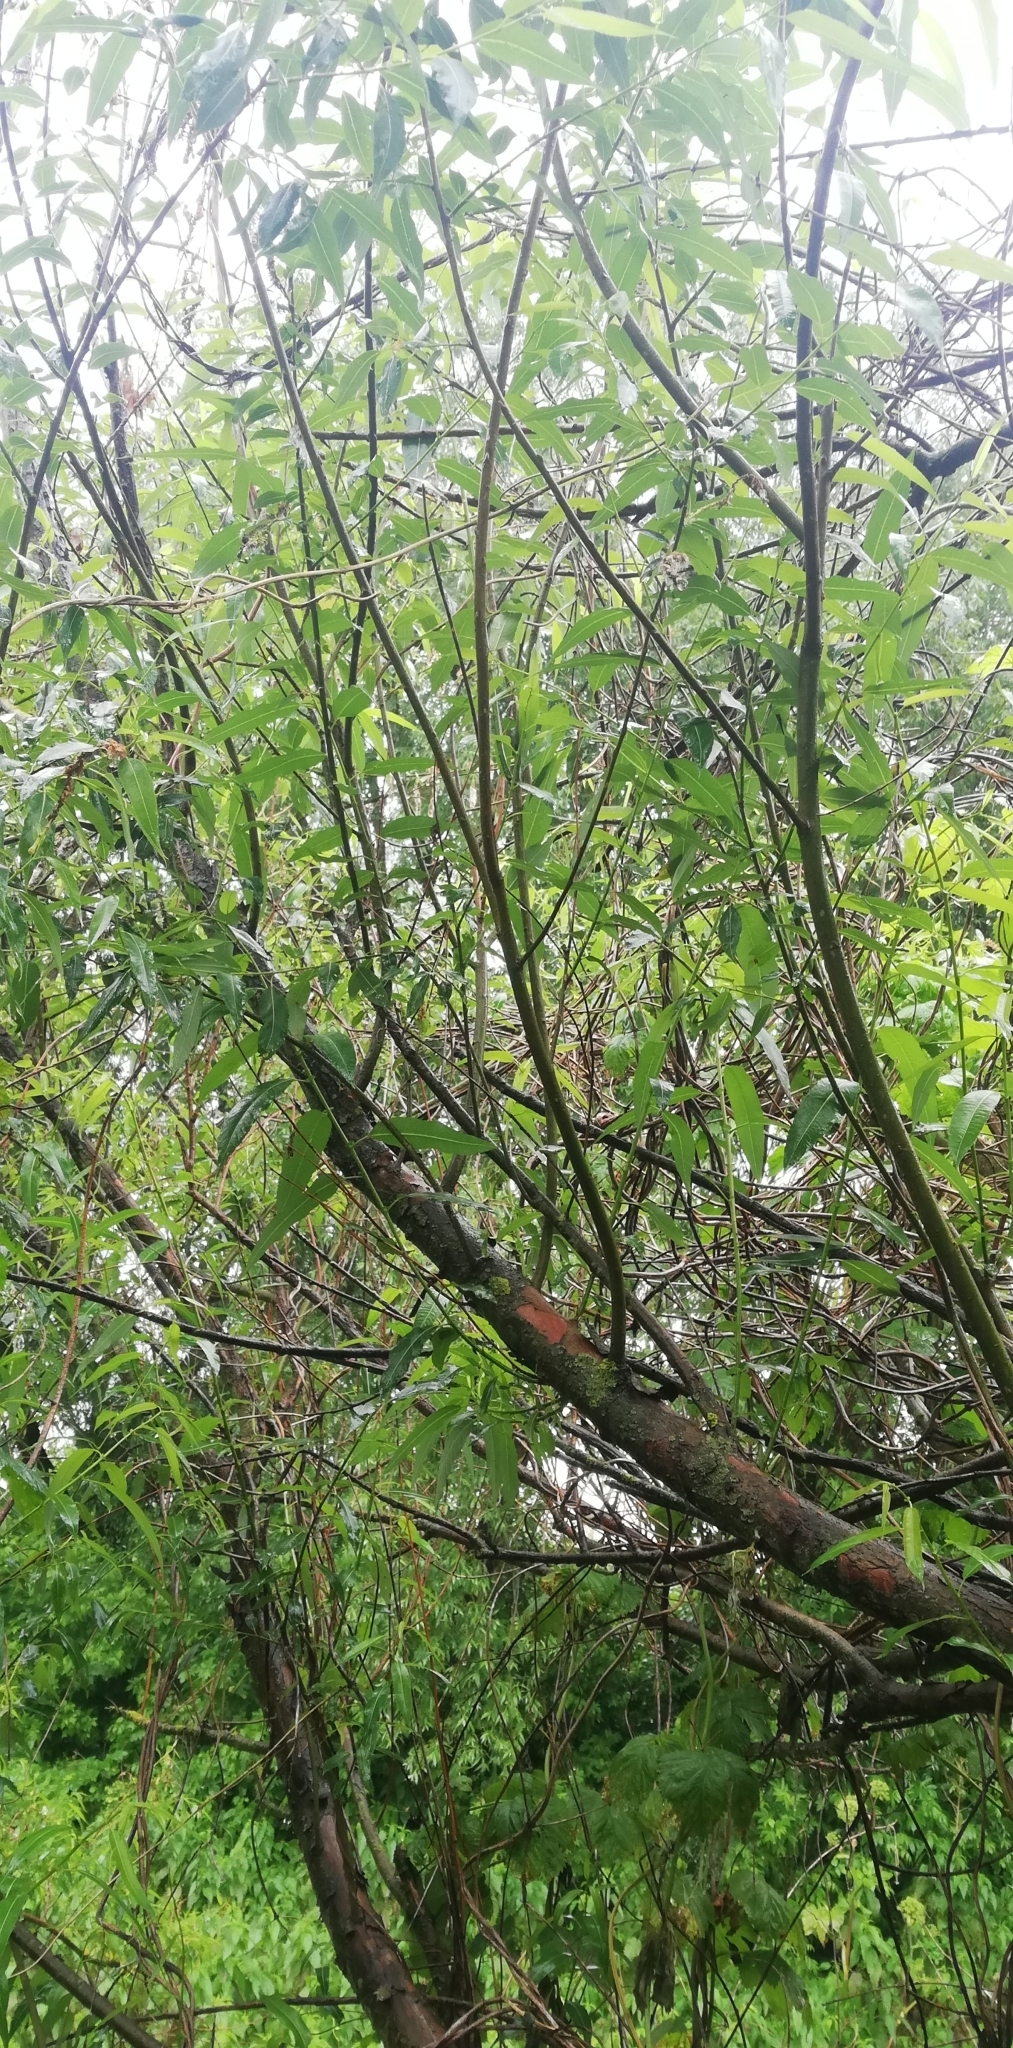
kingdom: Plantae
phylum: Tracheophyta
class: Magnoliopsida
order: Malpighiales
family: Salicaceae
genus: Salix
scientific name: Salix triandra
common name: Almond willow
